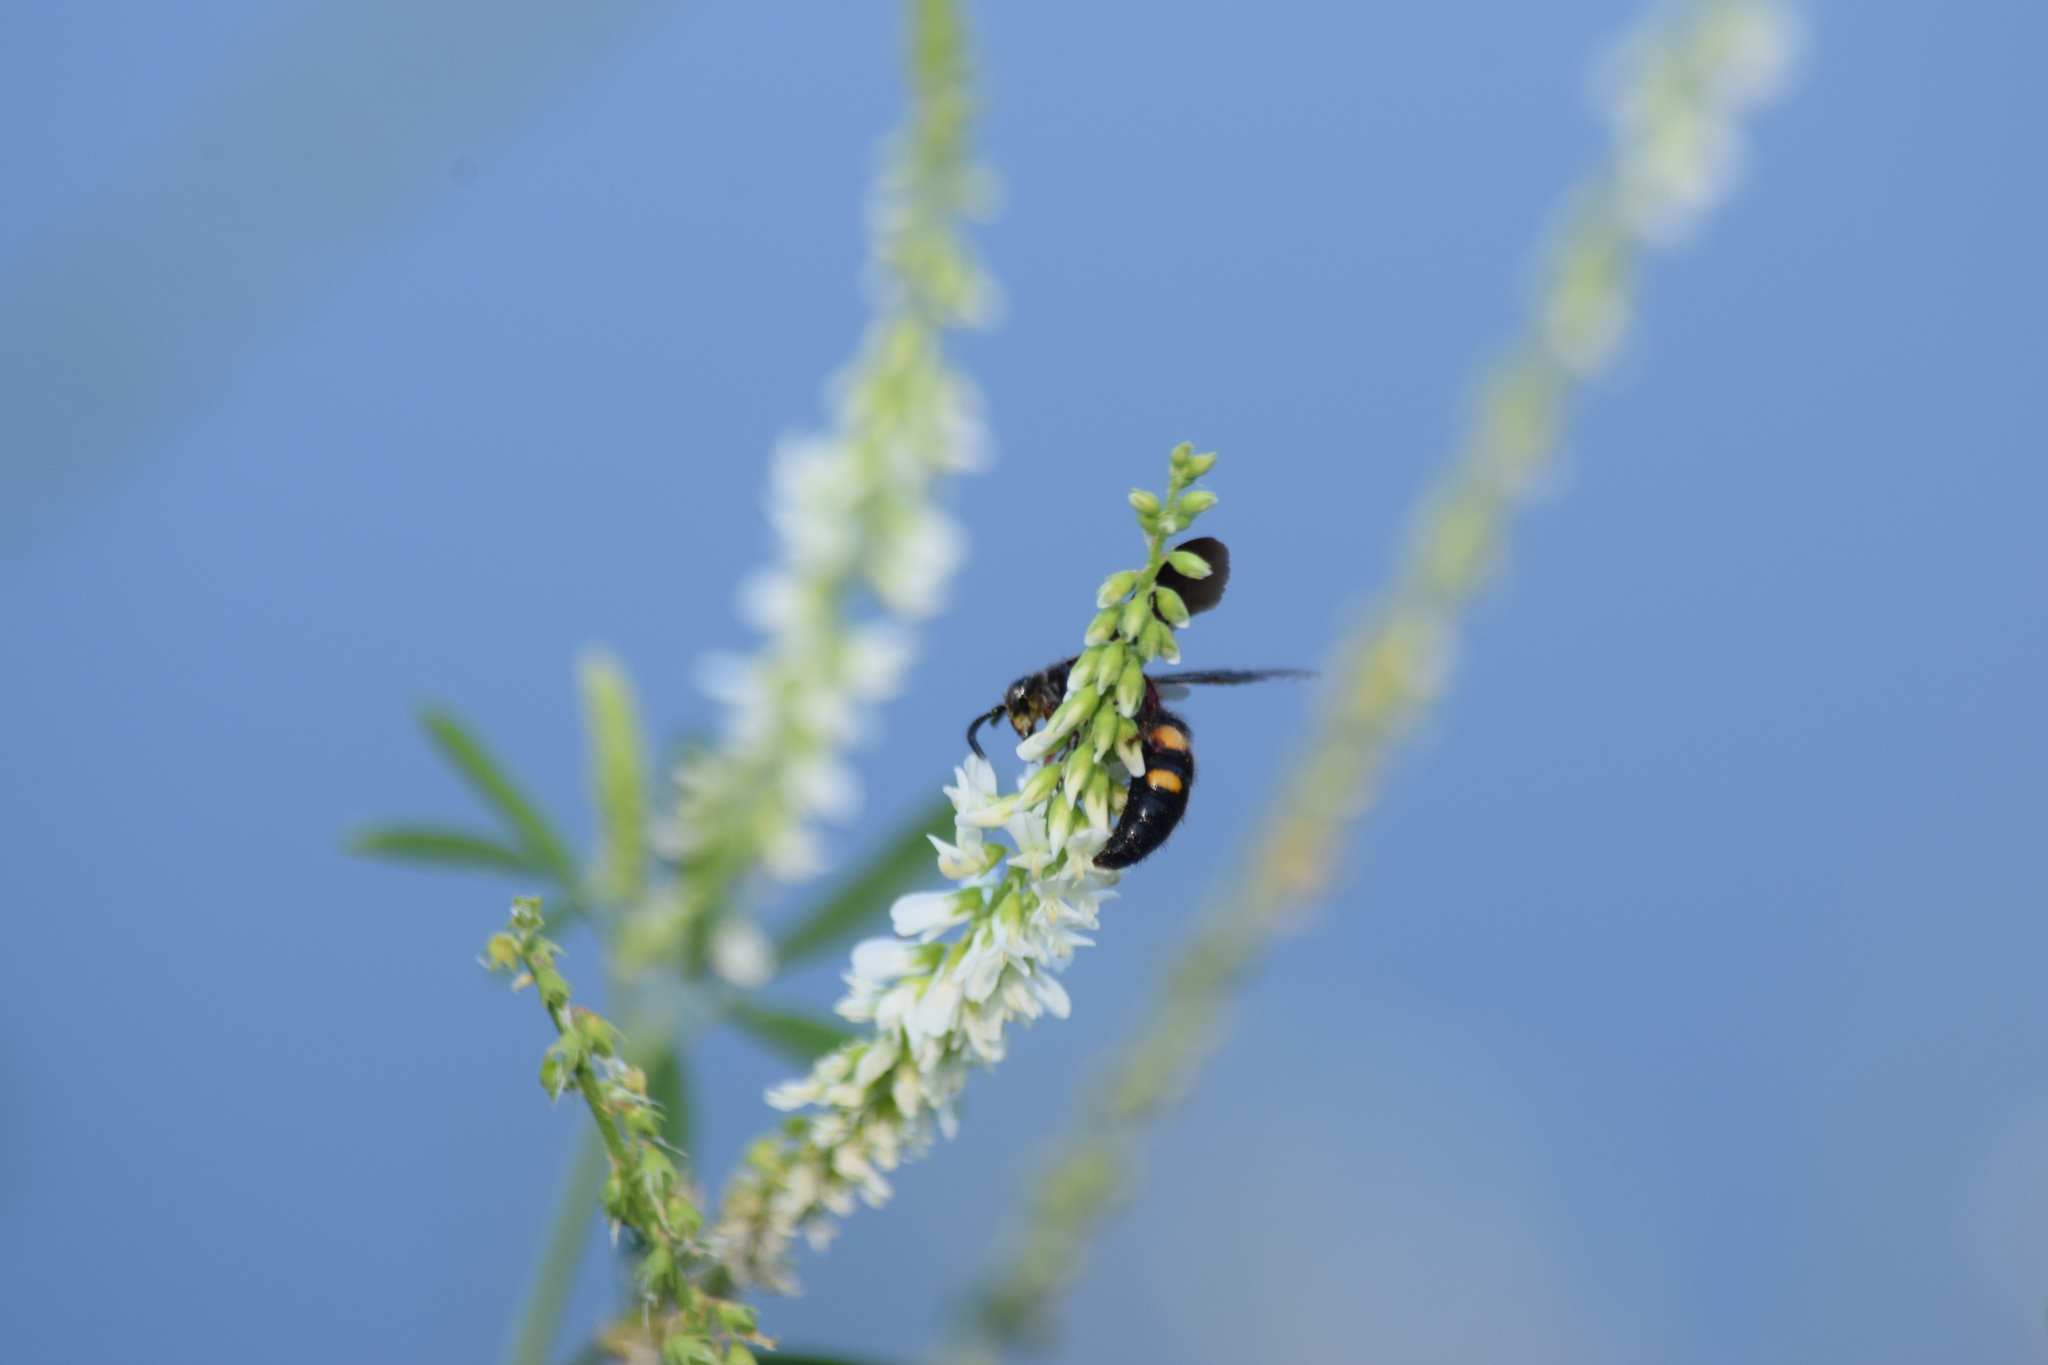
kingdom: Animalia
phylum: Arthropoda
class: Insecta
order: Hymenoptera
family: Scoliidae
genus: Scolia
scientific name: Scolia nobilitata
